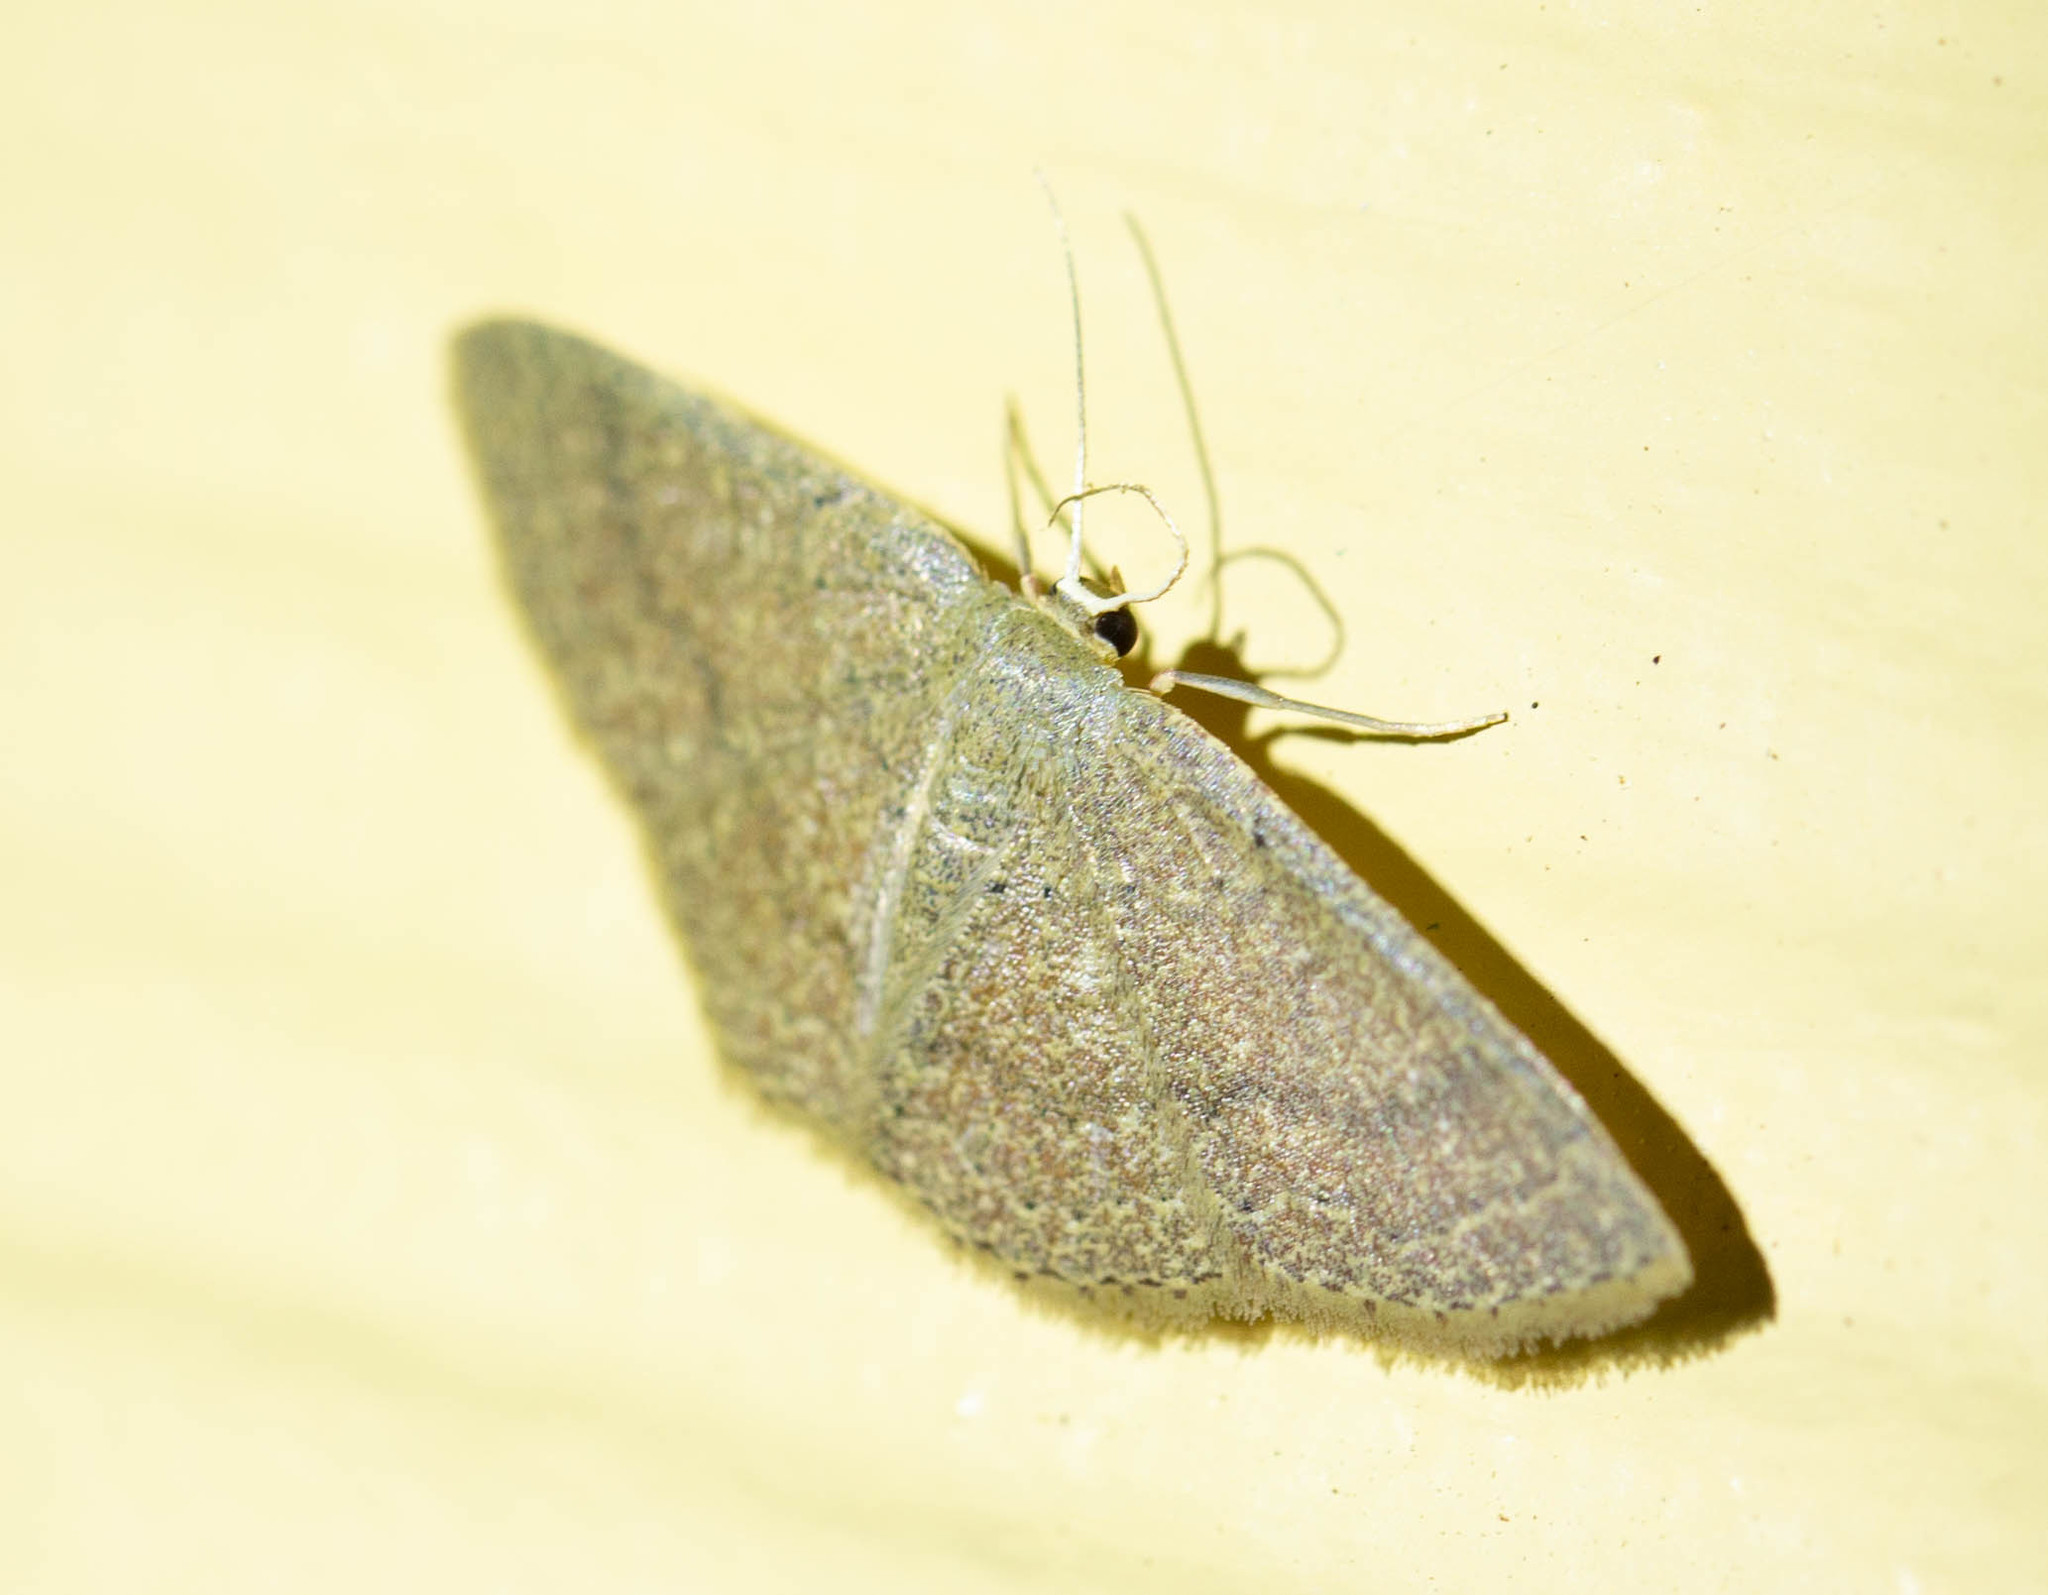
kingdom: Animalia
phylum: Arthropoda
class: Insecta
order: Lepidoptera
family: Geometridae
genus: Pleuroprucha
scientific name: Pleuroprucha insulsaria
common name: Common tan wave
